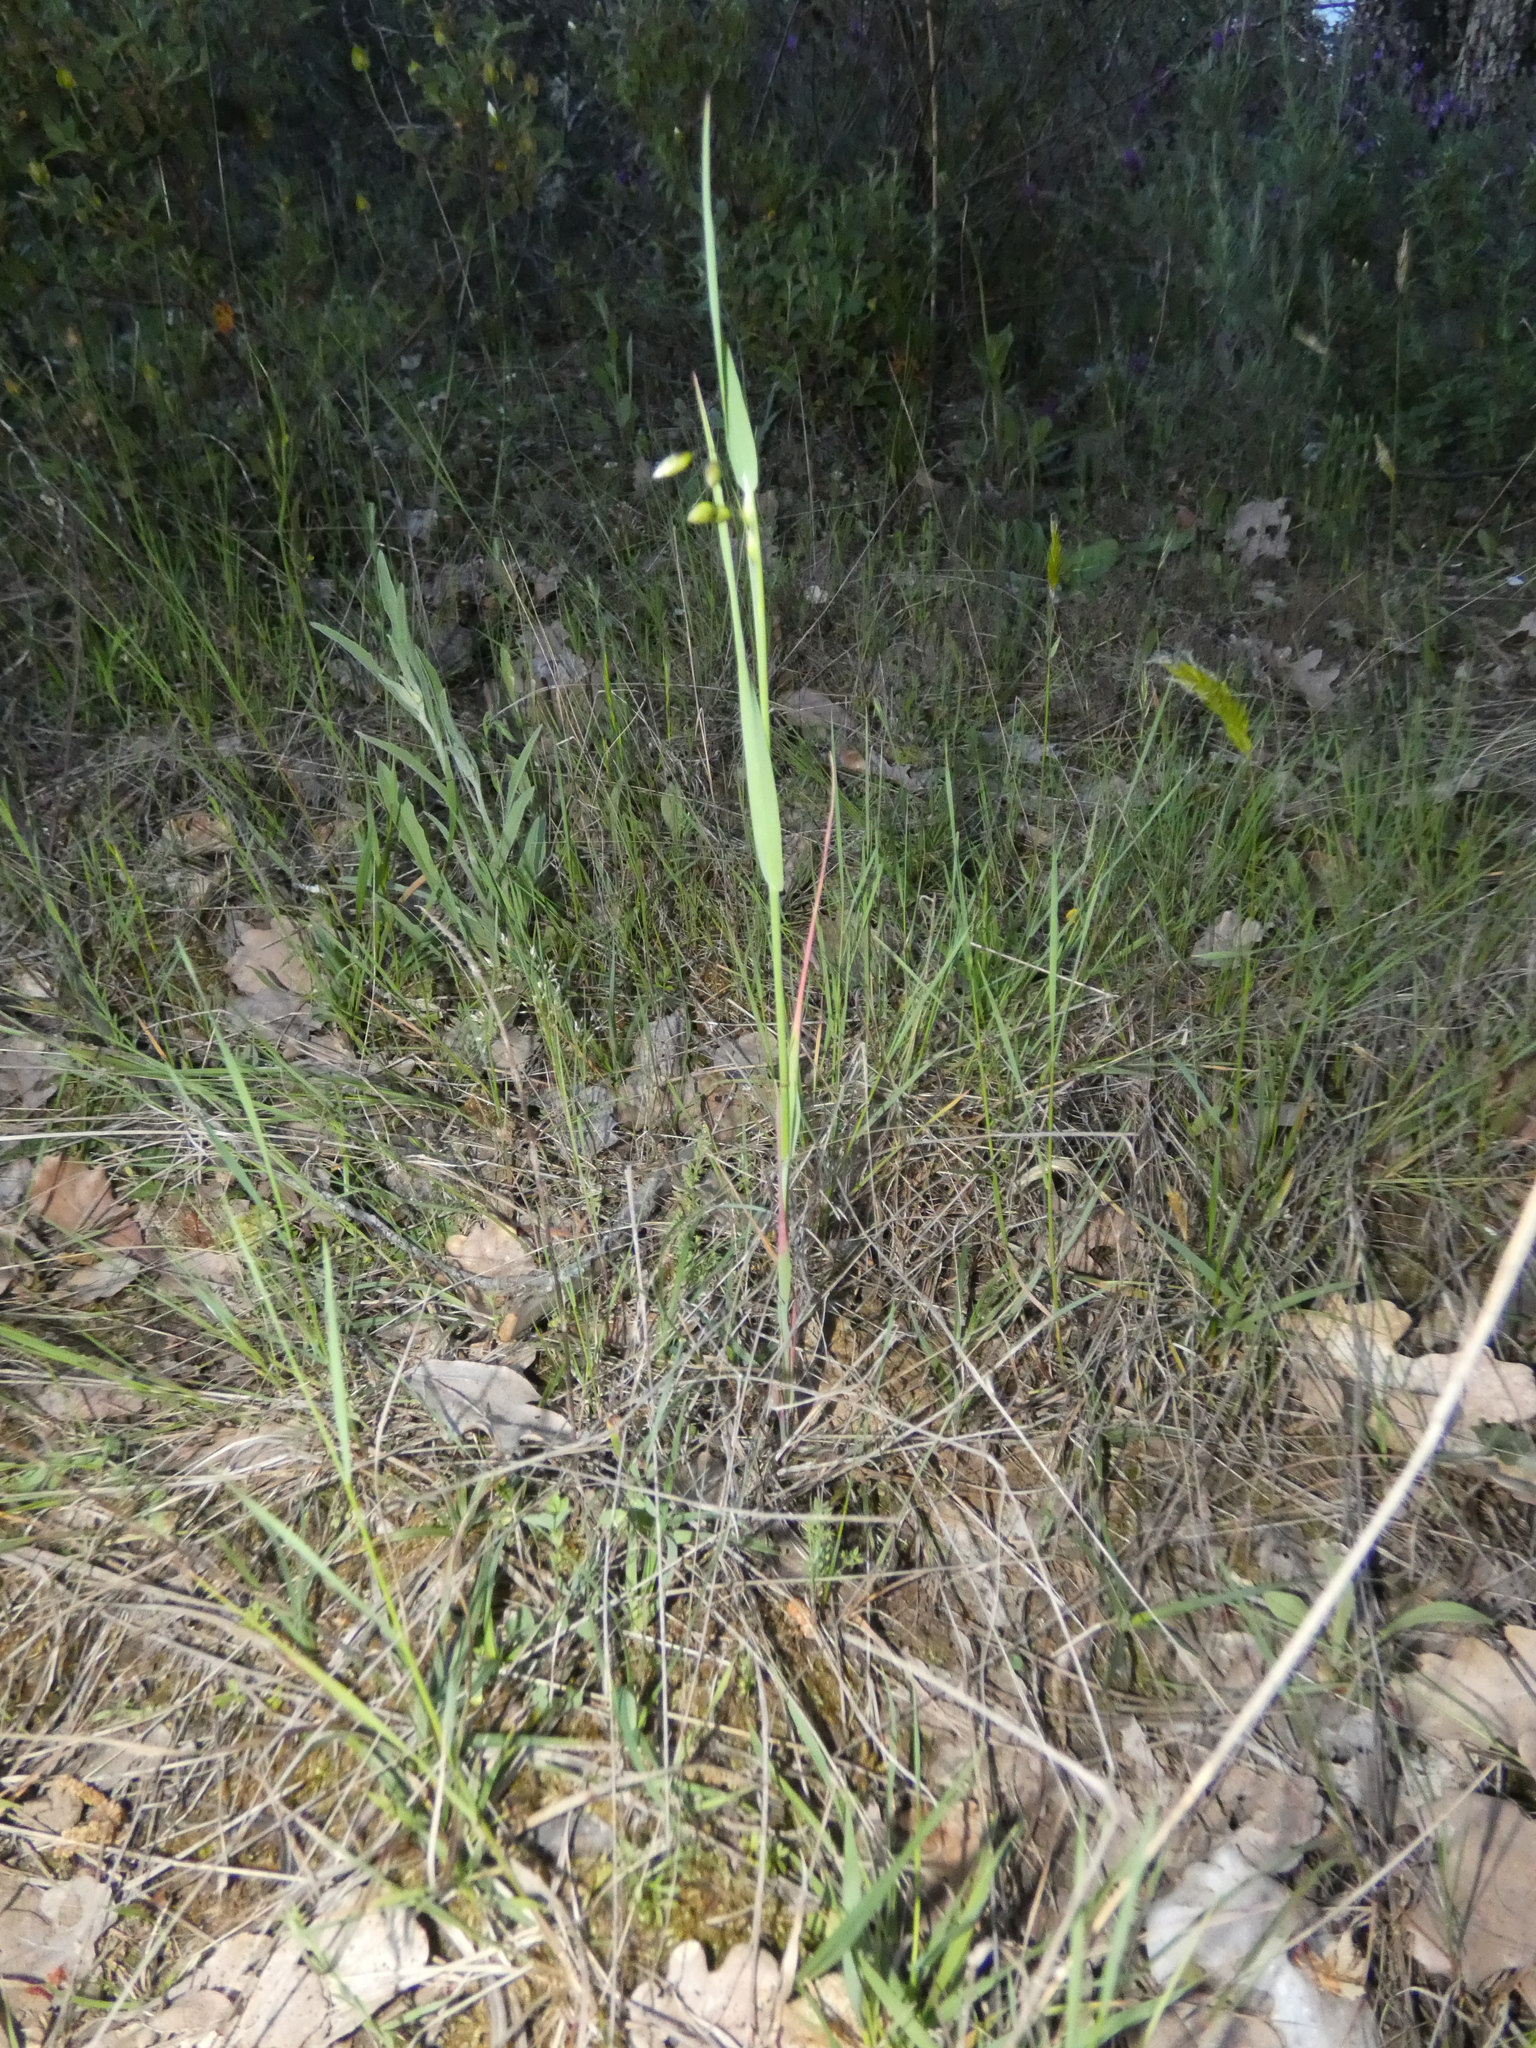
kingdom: Plantae
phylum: Tracheophyta
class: Liliopsida
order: Poales
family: Poaceae
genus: Briza
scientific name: Briza maxima
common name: Big quakinggrass
